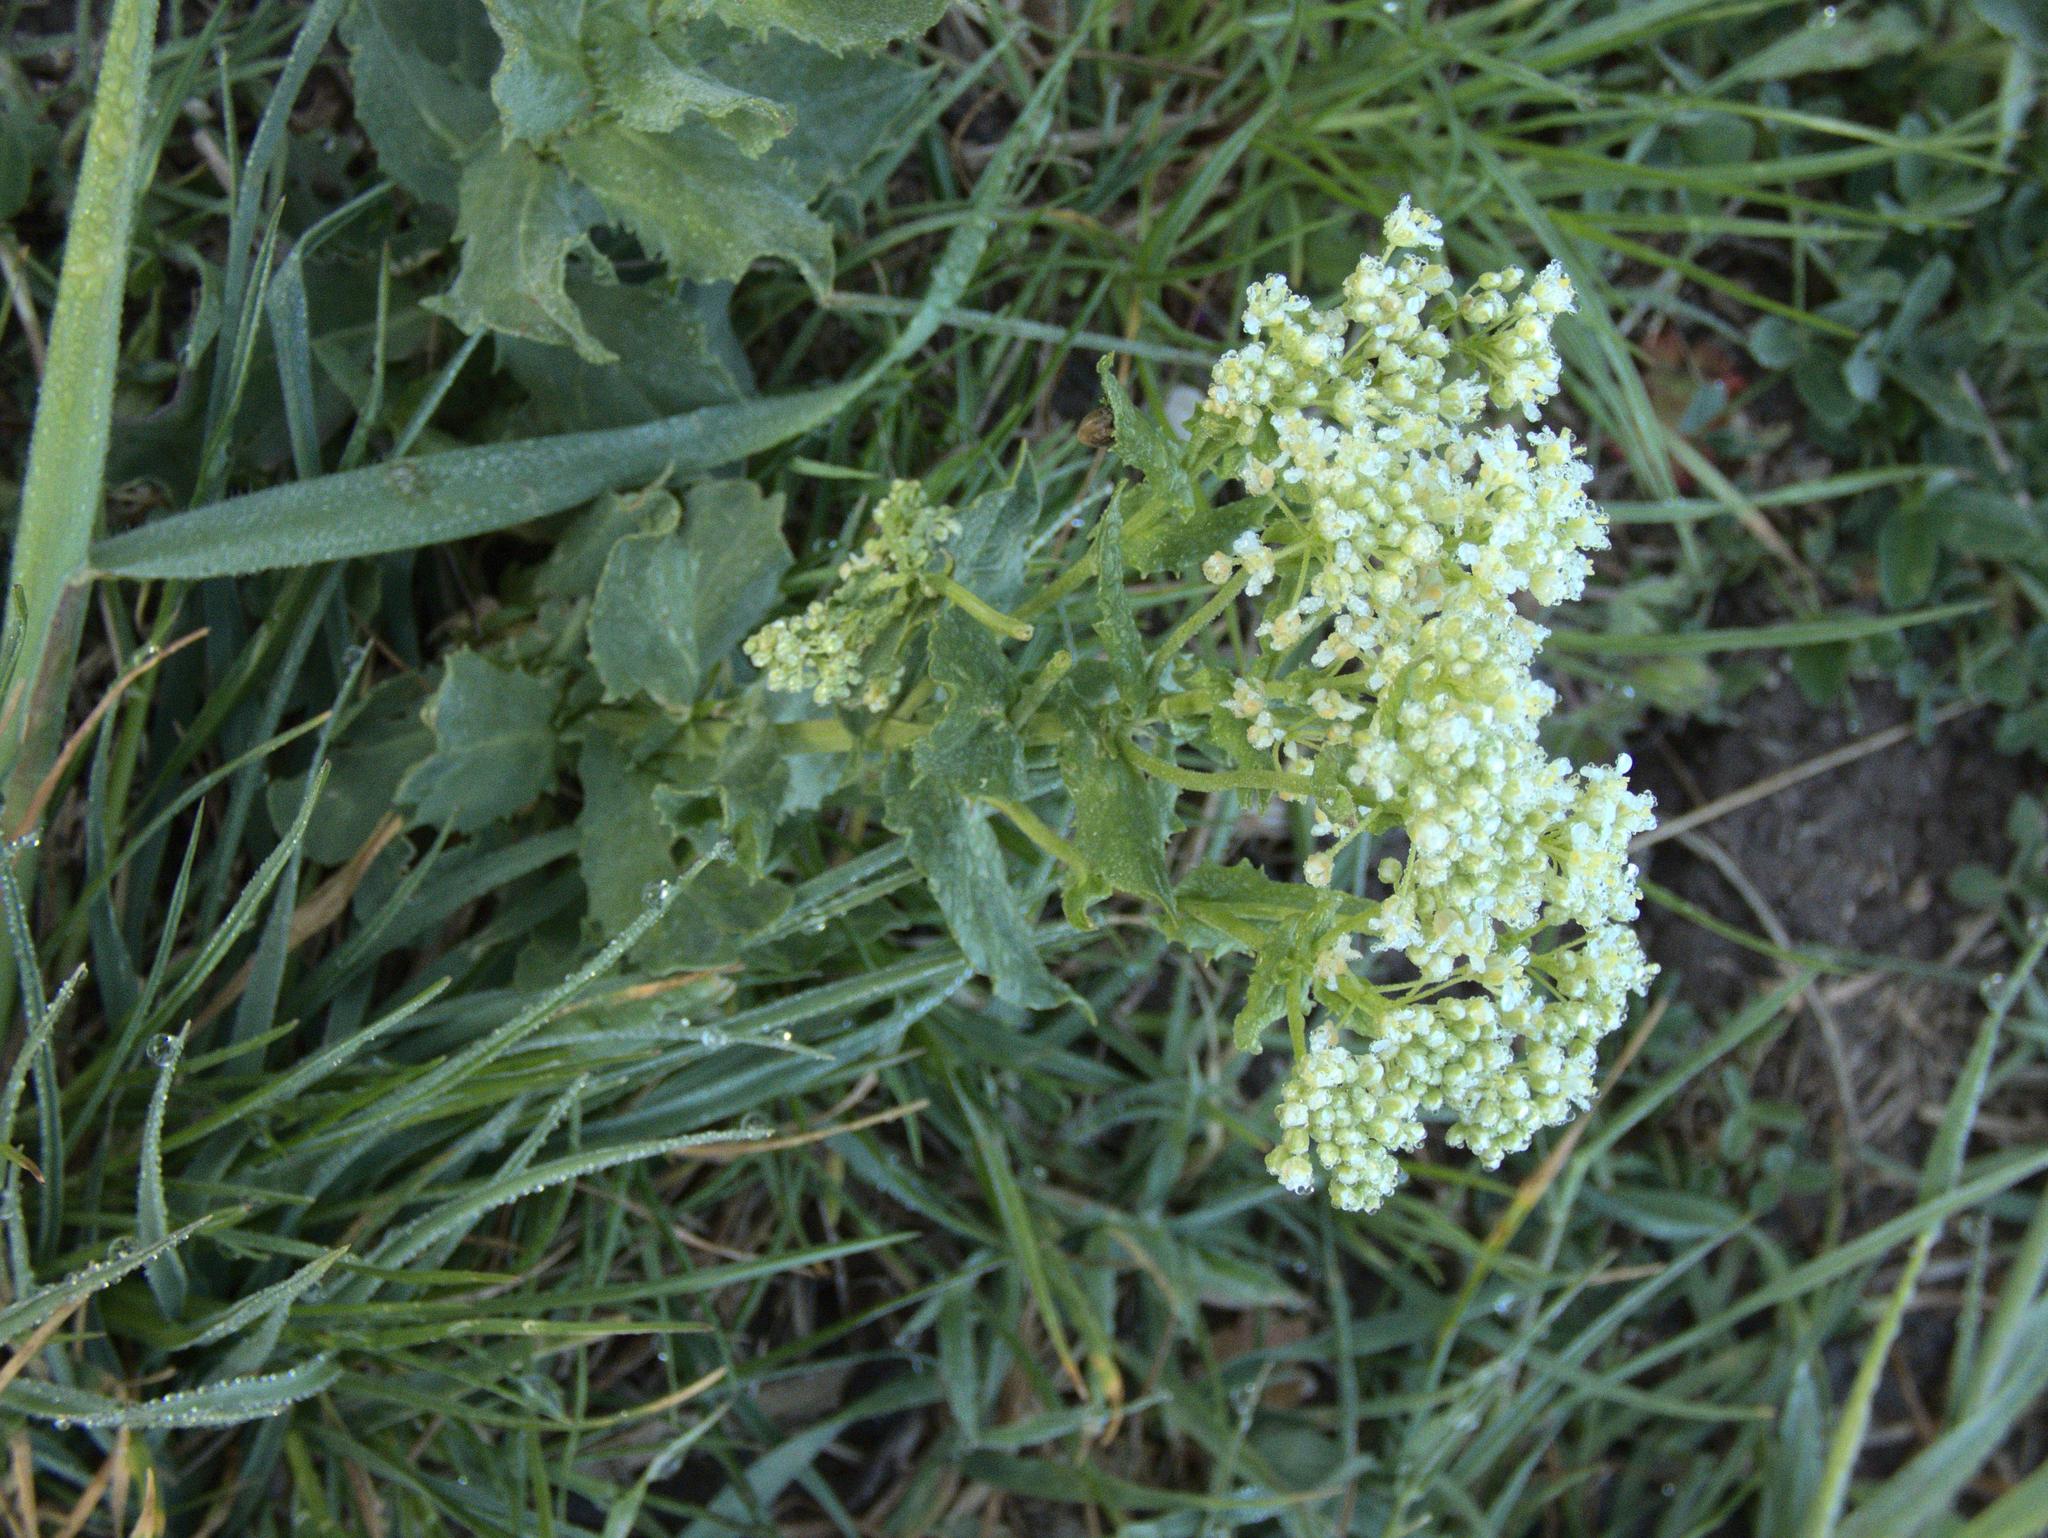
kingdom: Plantae
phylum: Tracheophyta
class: Magnoliopsida
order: Brassicales
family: Brassicaceae
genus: Lepidium
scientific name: Lepidium draba
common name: Hoary cress
